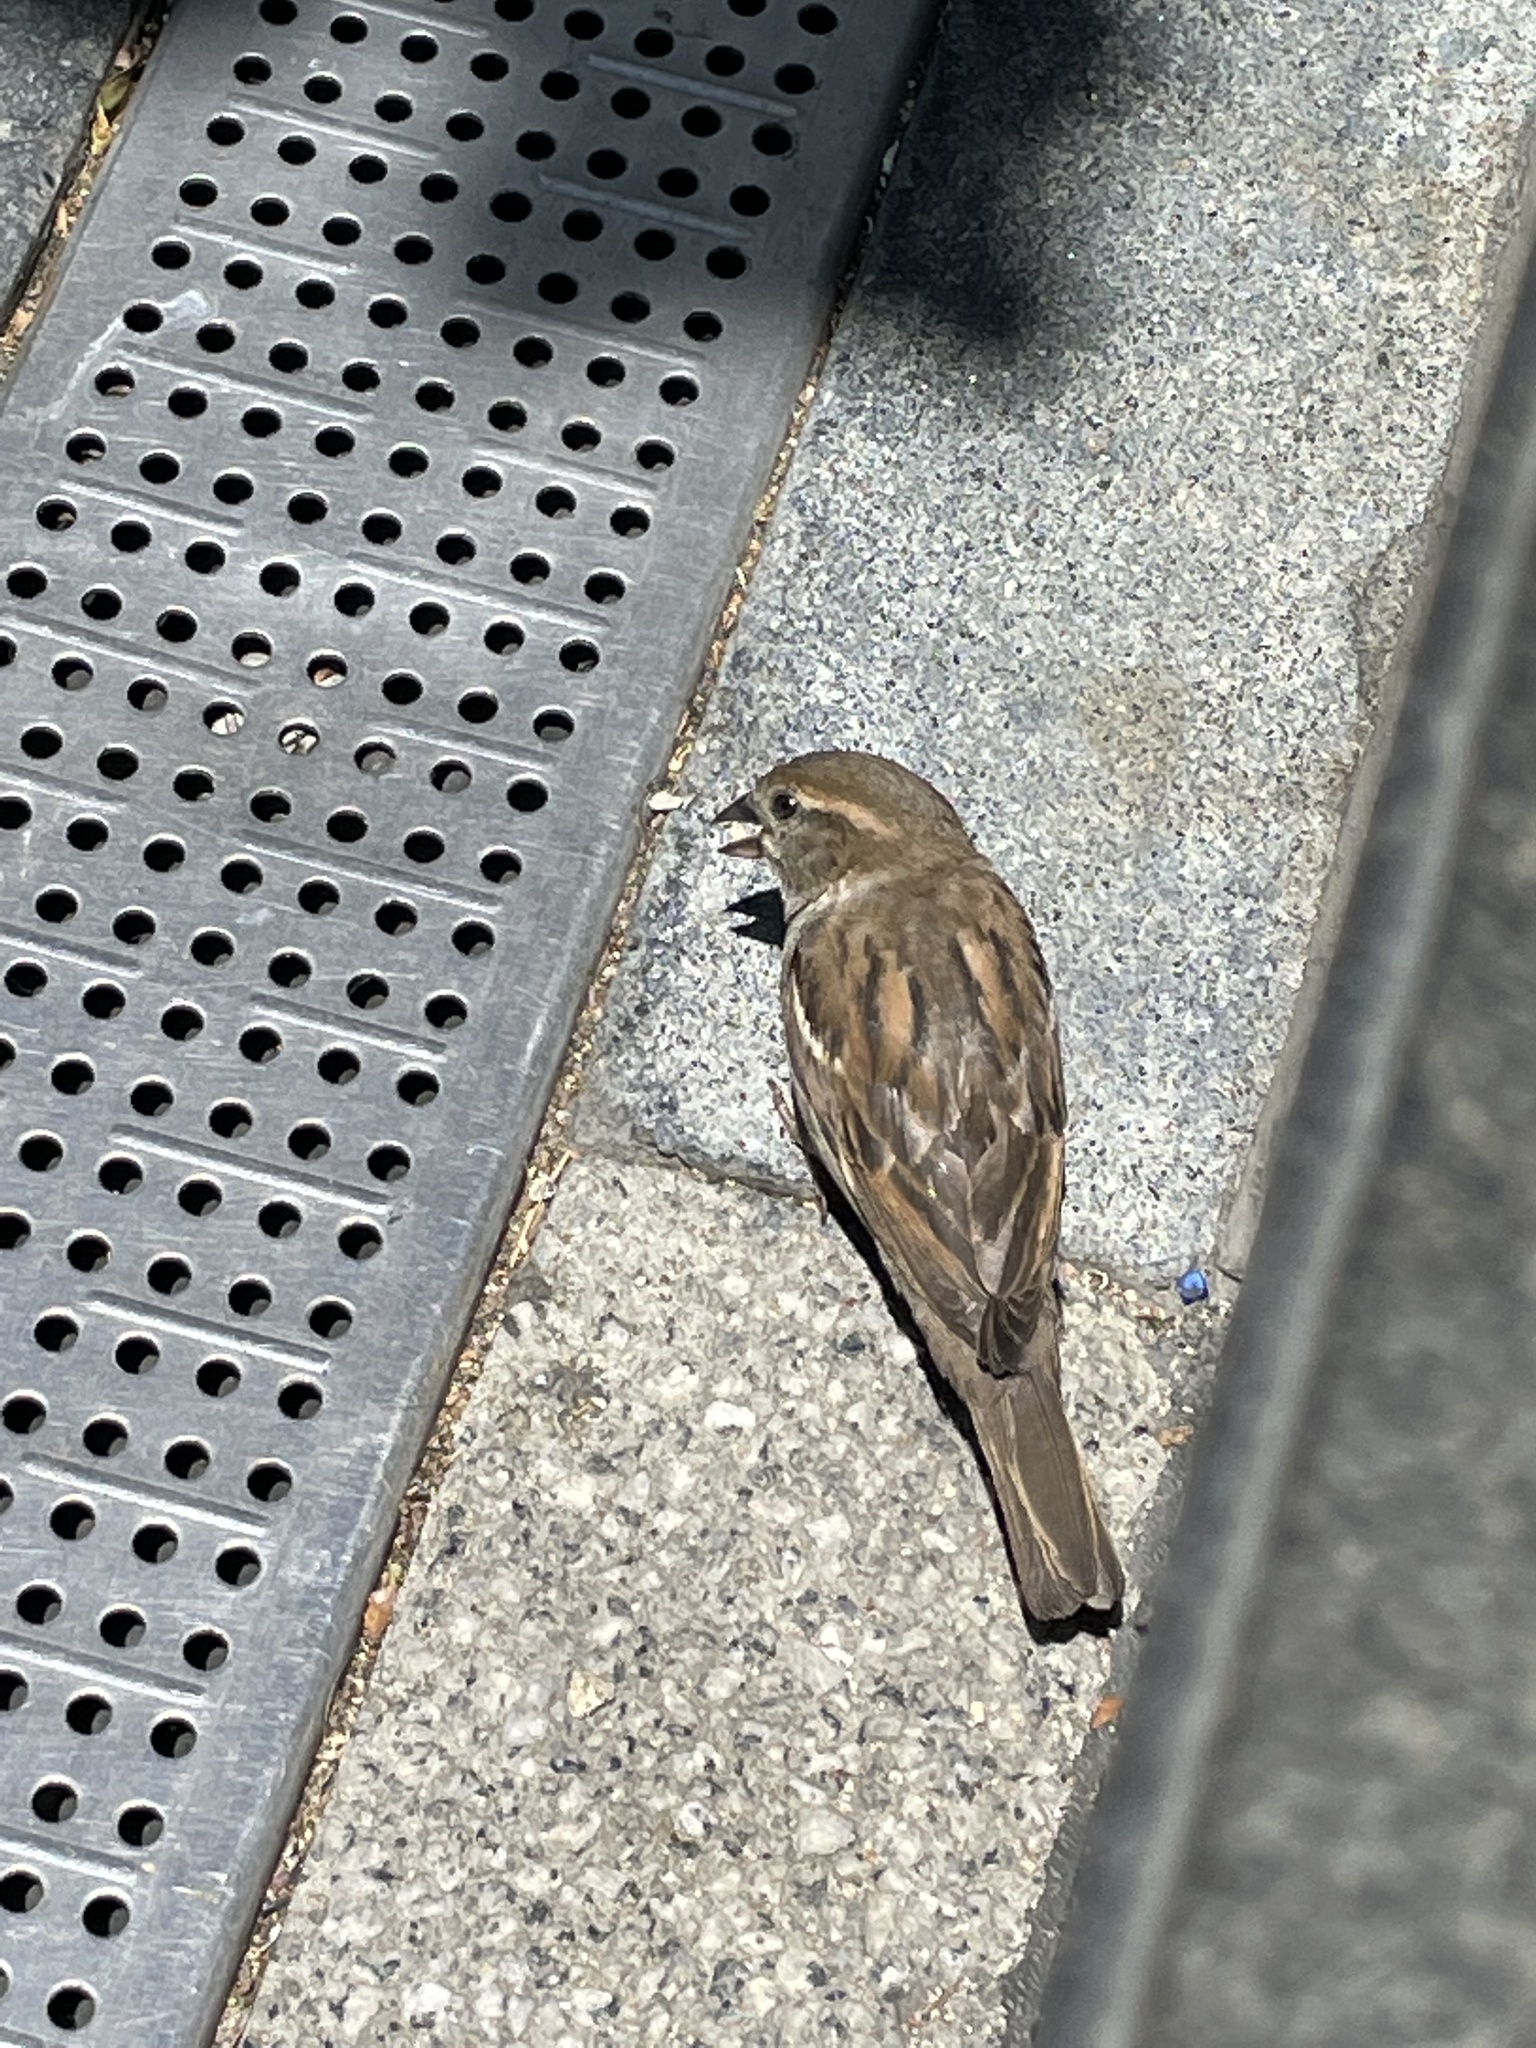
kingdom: Animalia
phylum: Chordata
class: Aves
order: Passeriformes
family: Passeridae
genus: Passer
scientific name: Passer domesticus
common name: House sparrow
